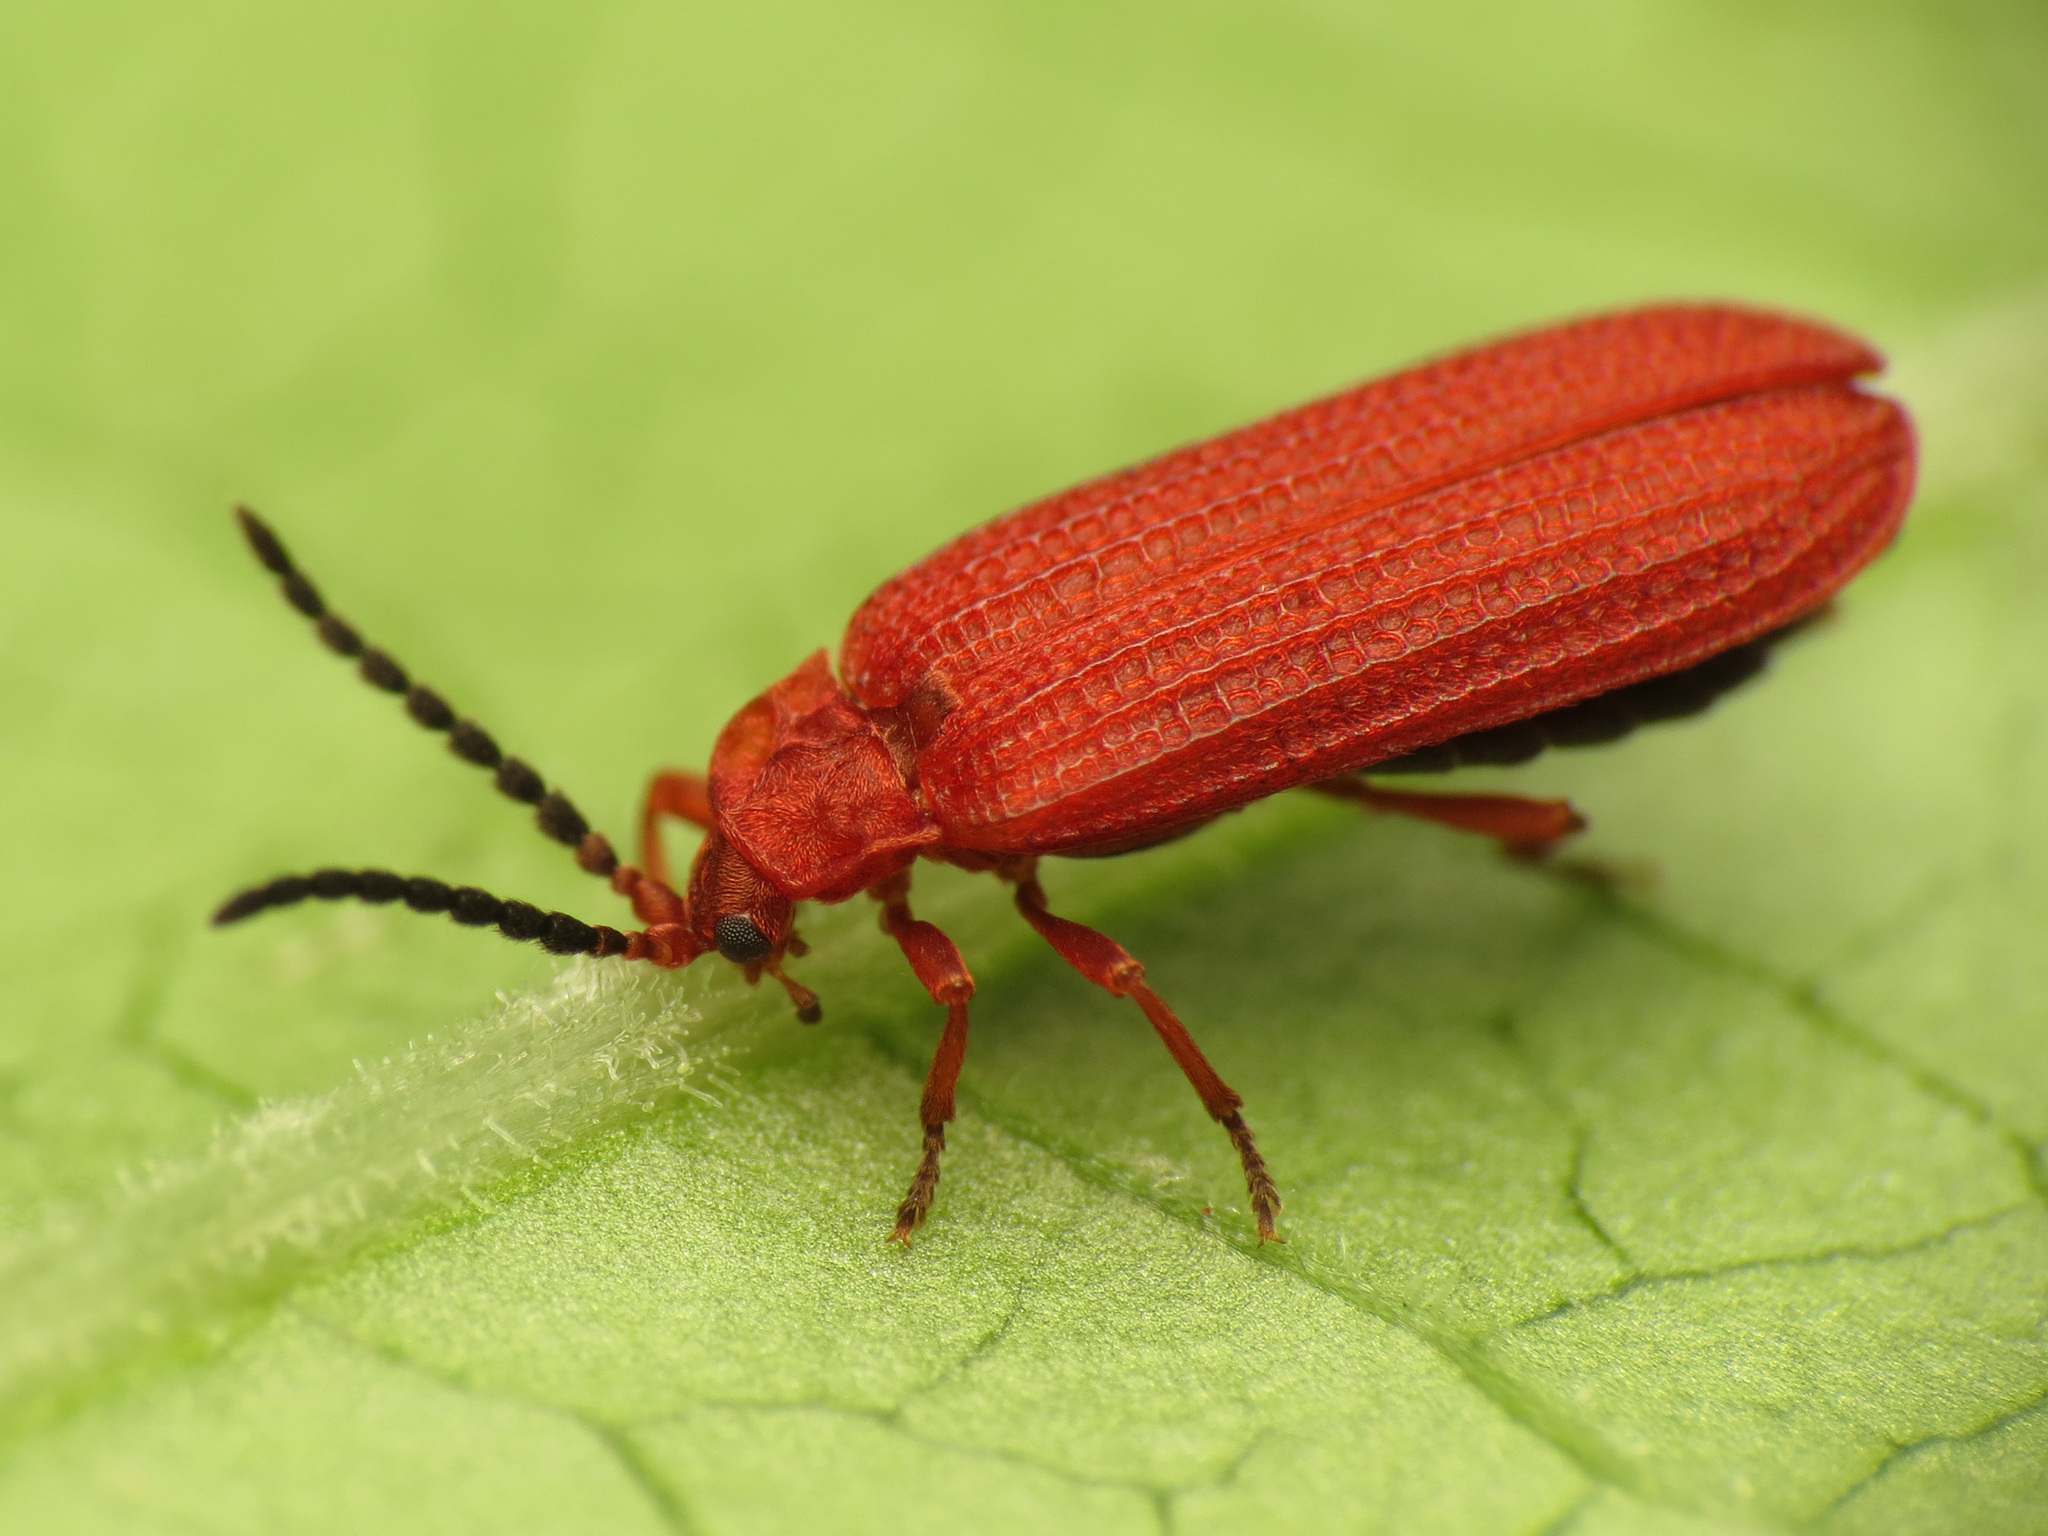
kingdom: Animalia
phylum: Arthropoda
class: Insecta
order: Coleoptera
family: Lycidae
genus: Punicealis
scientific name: Punicealis
